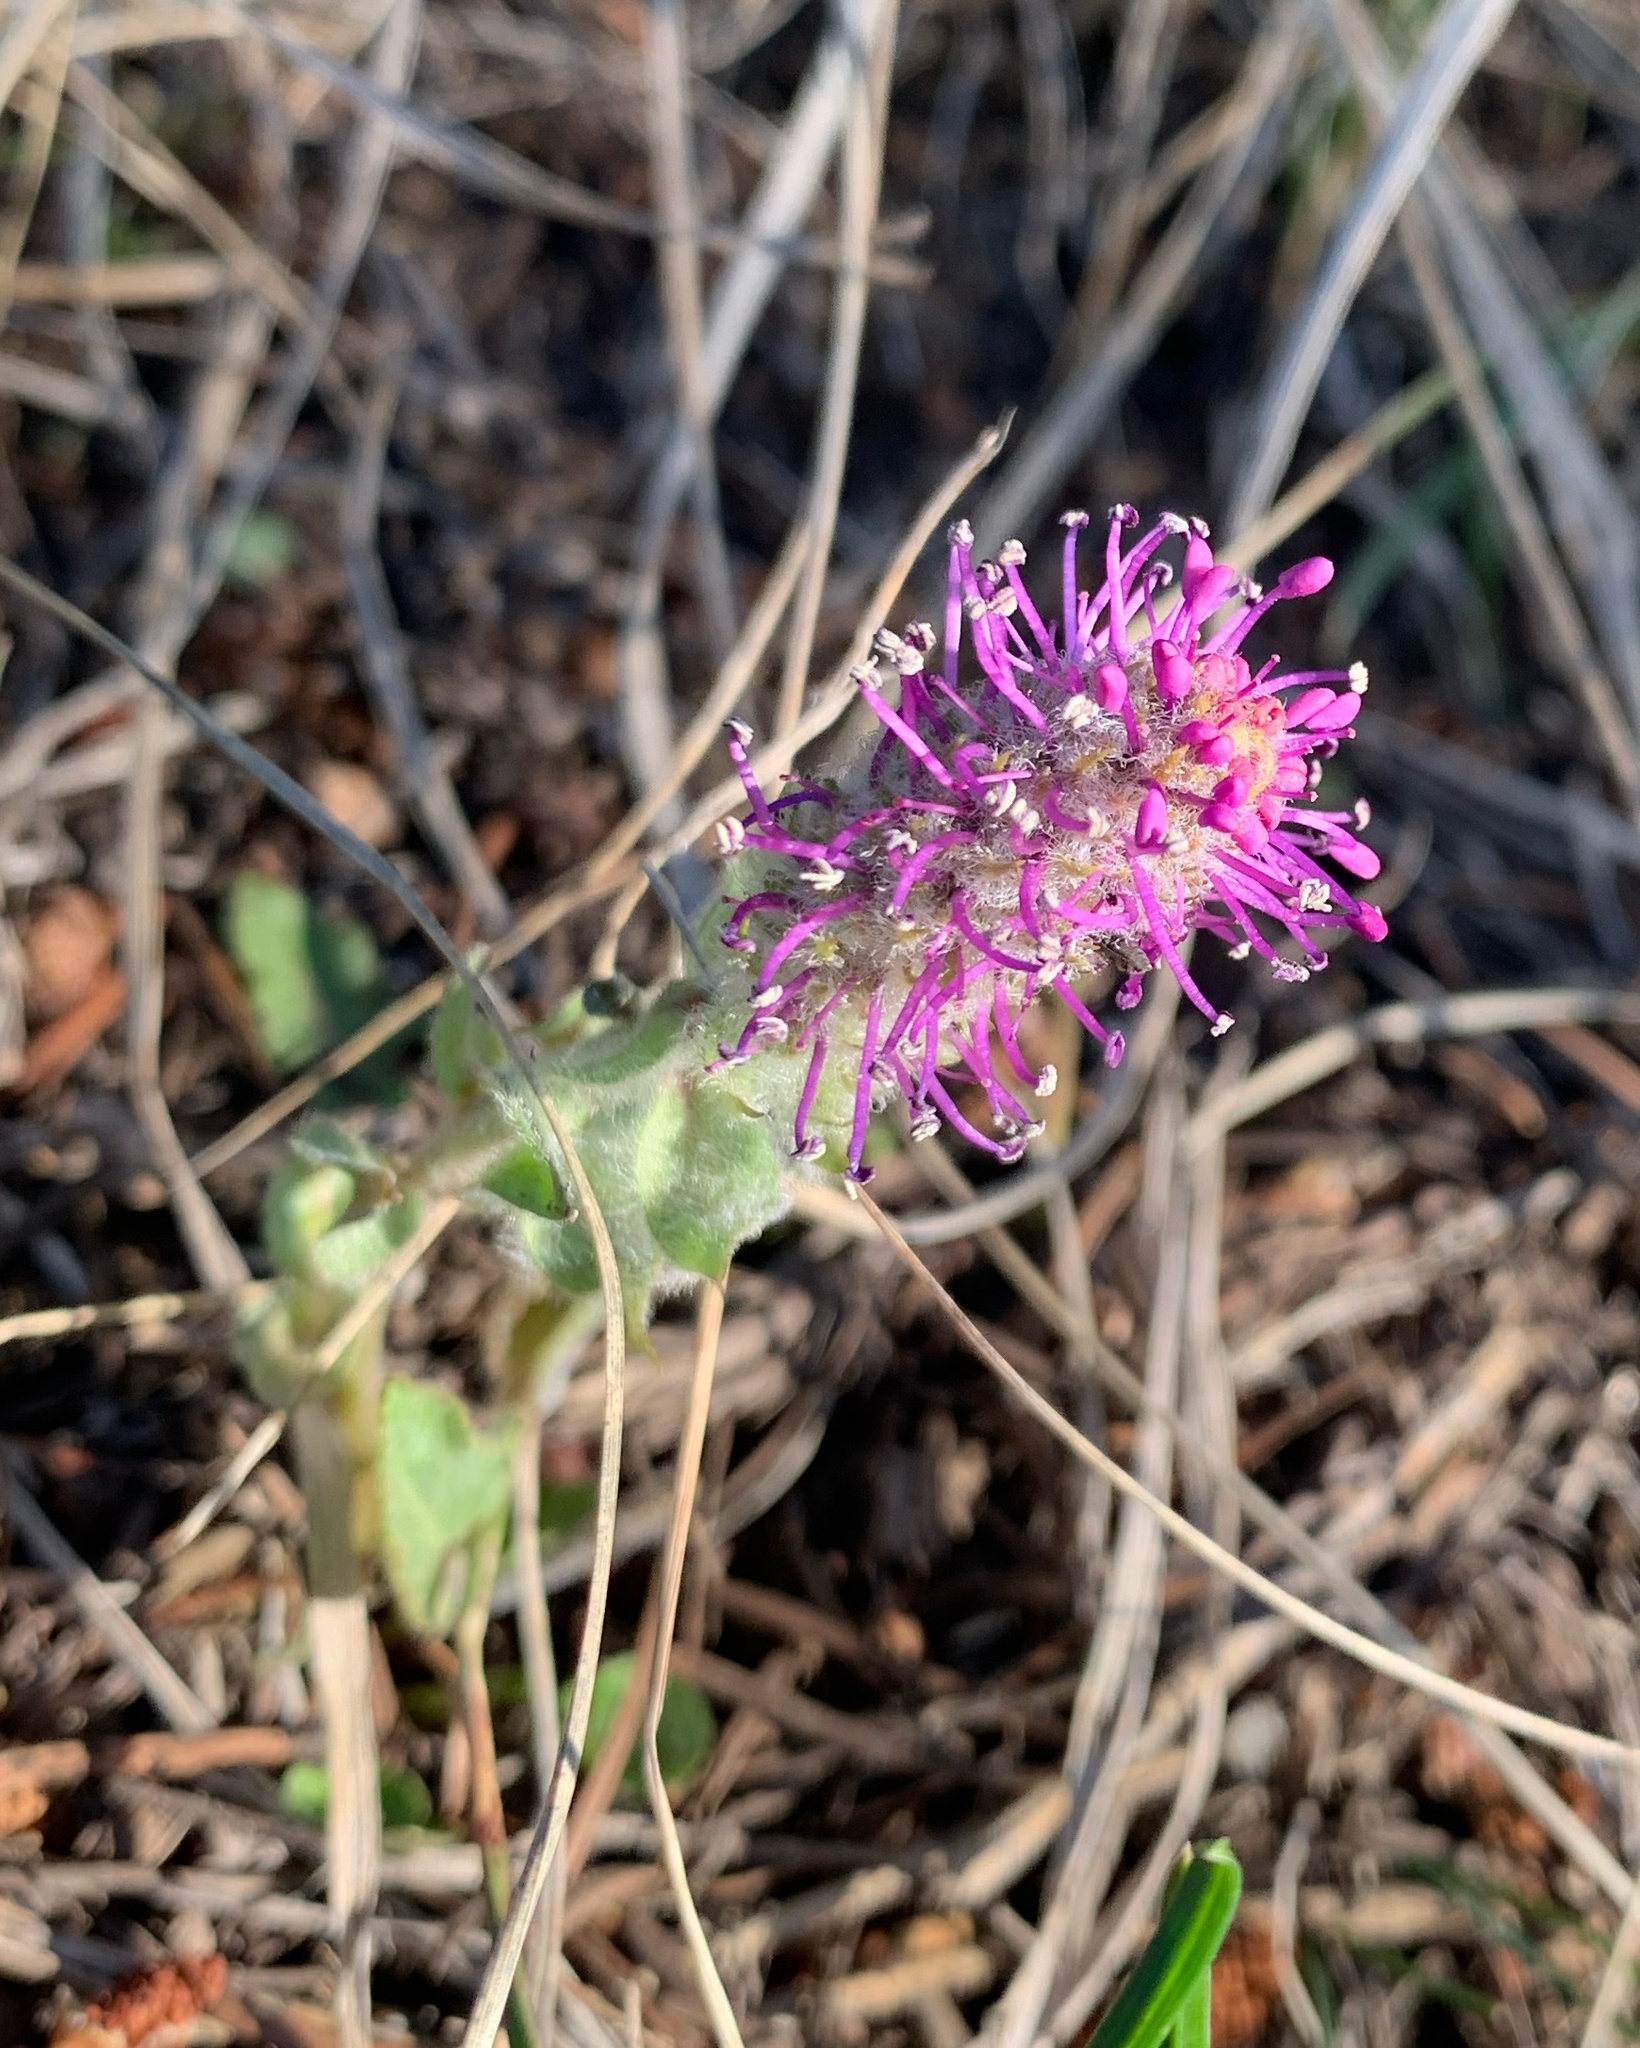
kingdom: Plantae
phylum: Tracheophyta
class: Magnoliopsida
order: Lamiales
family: Plantaginaceae
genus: Synthyris
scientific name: Synthyris wyomingensis
